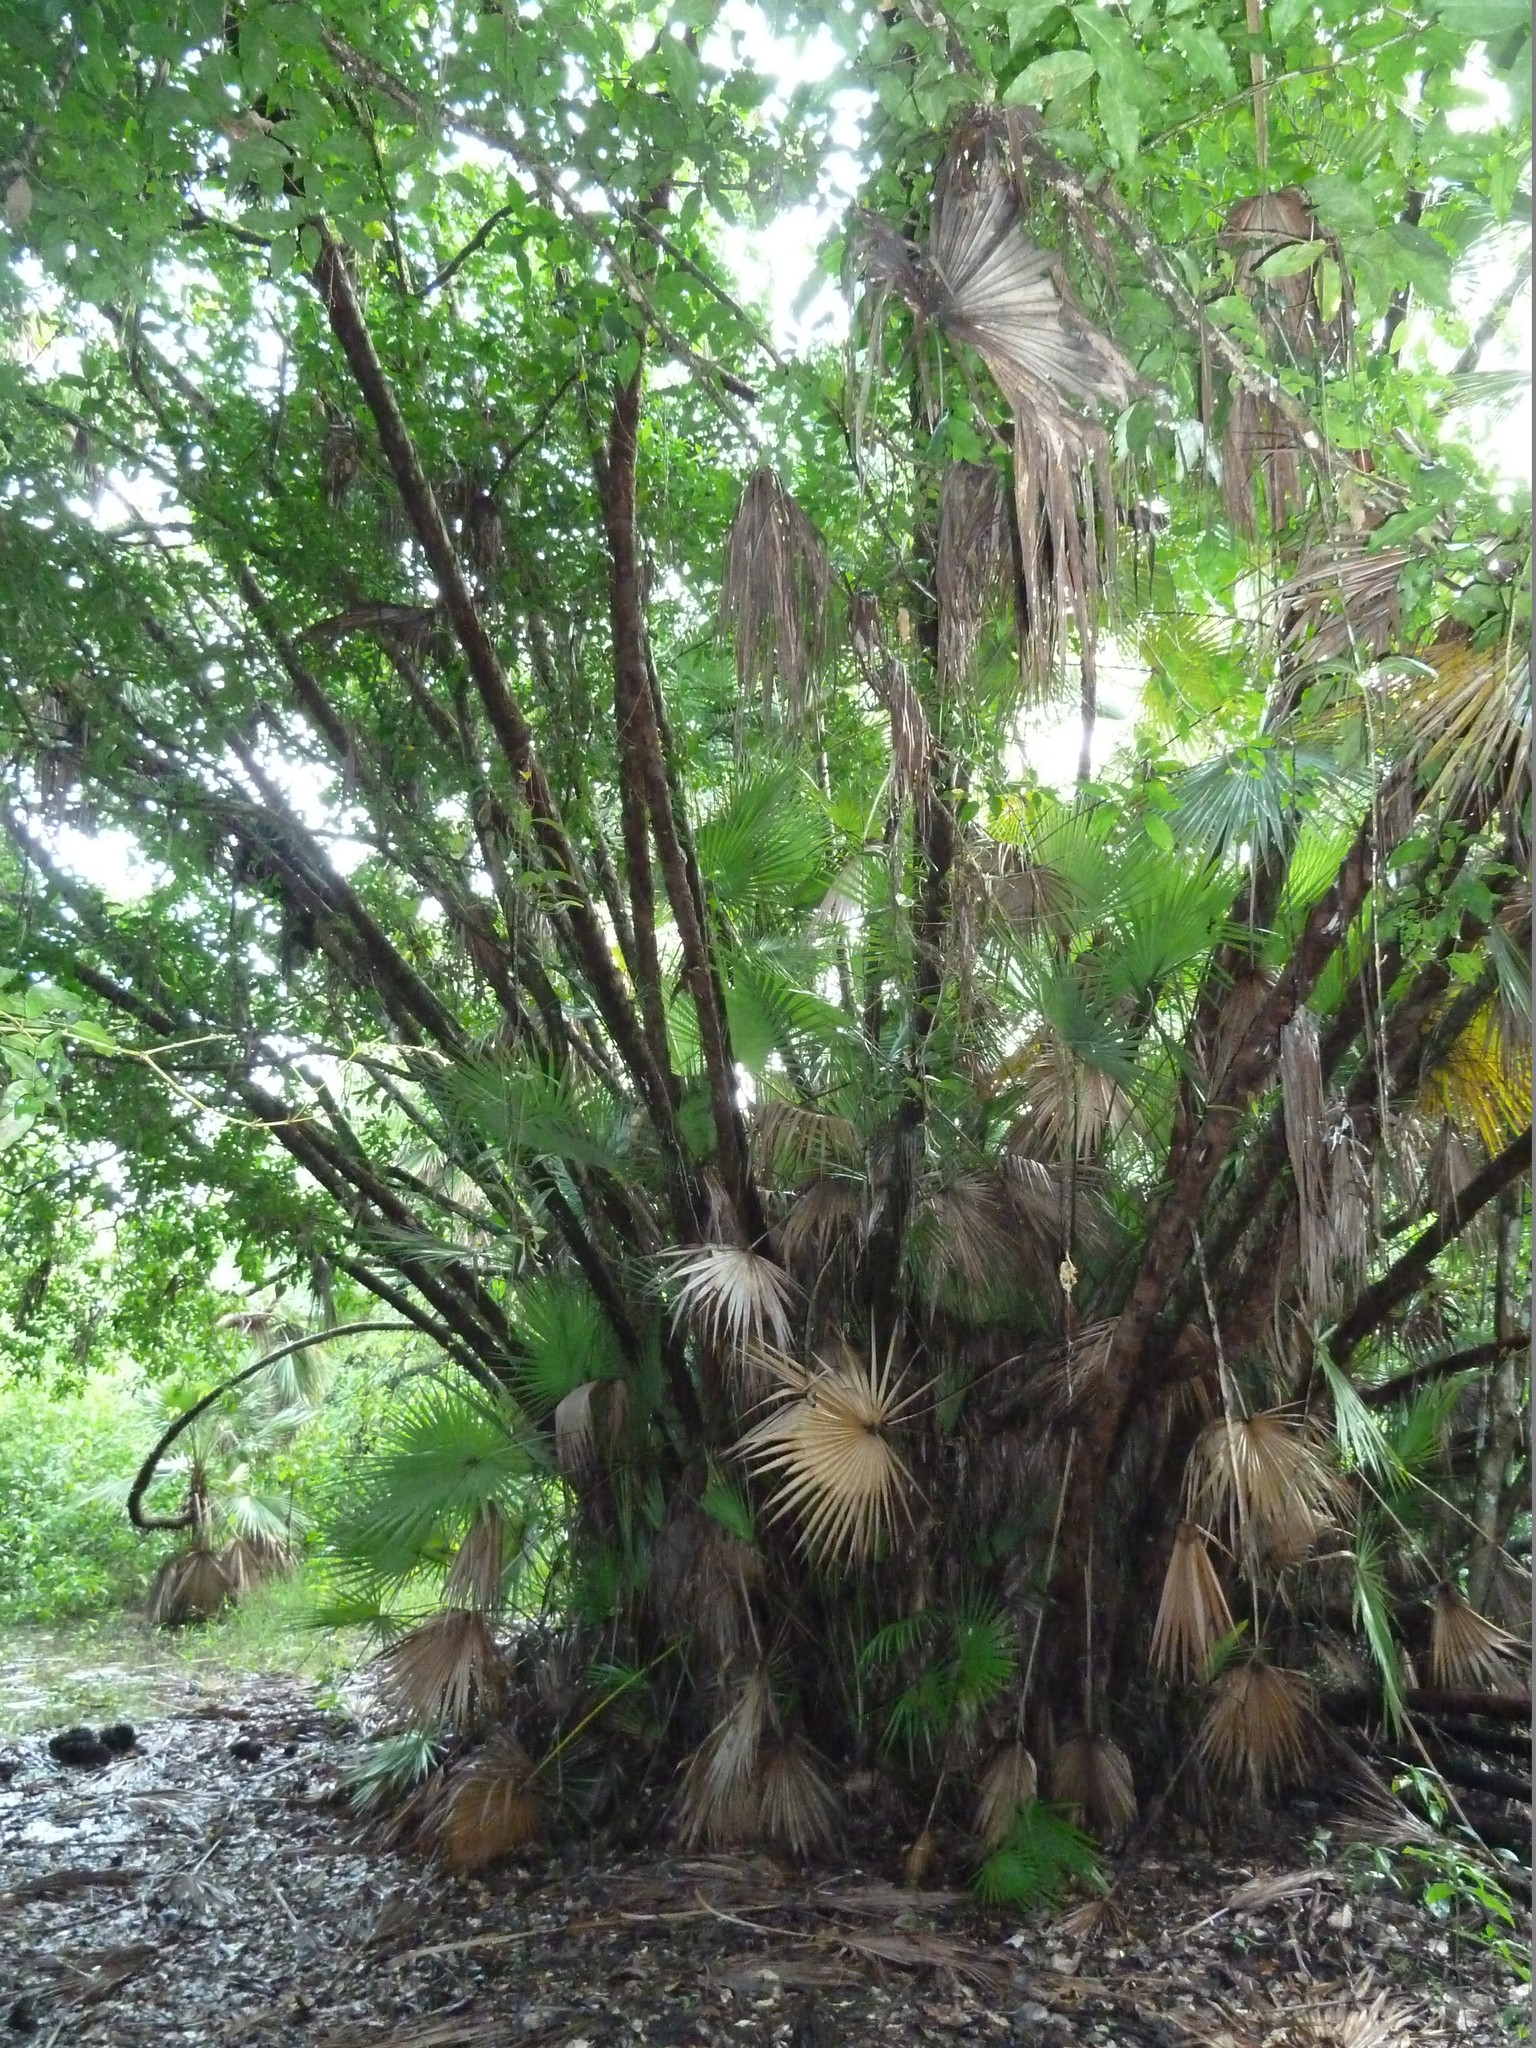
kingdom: Plantae
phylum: Tracheophyta
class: Liliopsida
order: Arecales
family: Arecaceae
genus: Acoelorraphe
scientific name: Acoelorraphe wrightii
